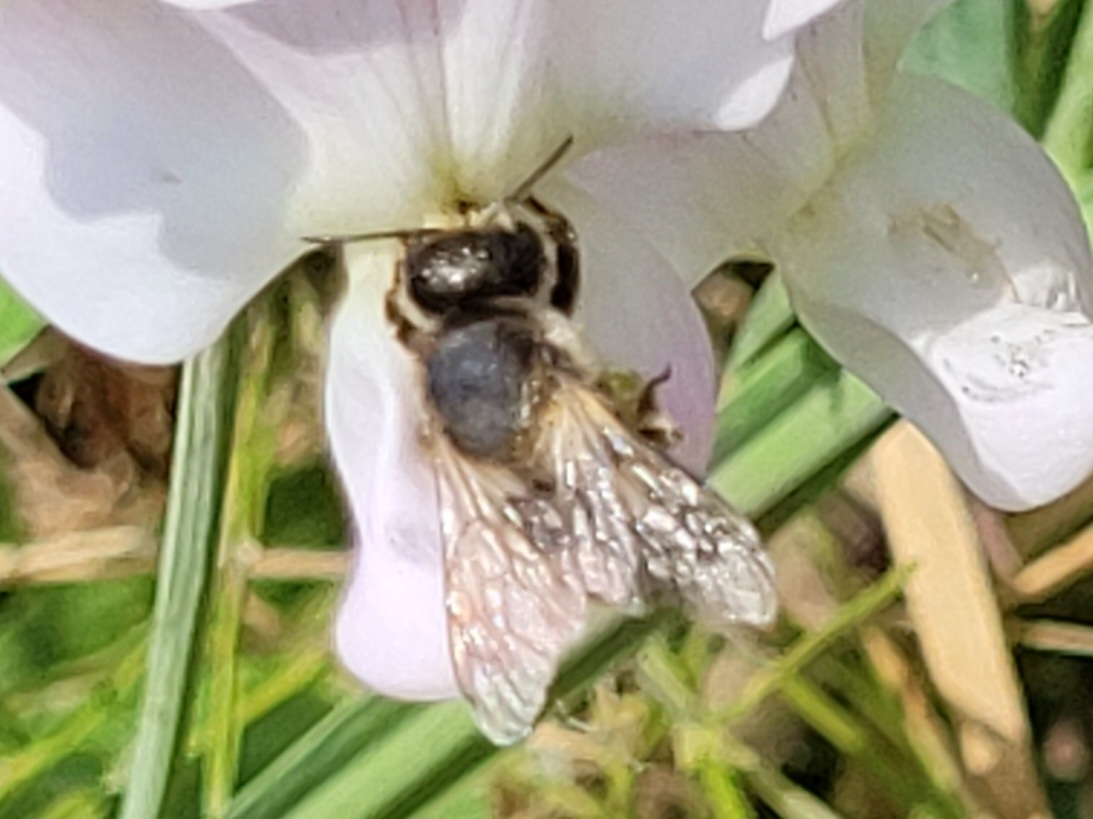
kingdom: Animalia
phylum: Arthropoda
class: Insecta
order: Hymenoptera
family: Megachilidae
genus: Megachile
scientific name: Megachile ericetorum
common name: Leafcutter bee
